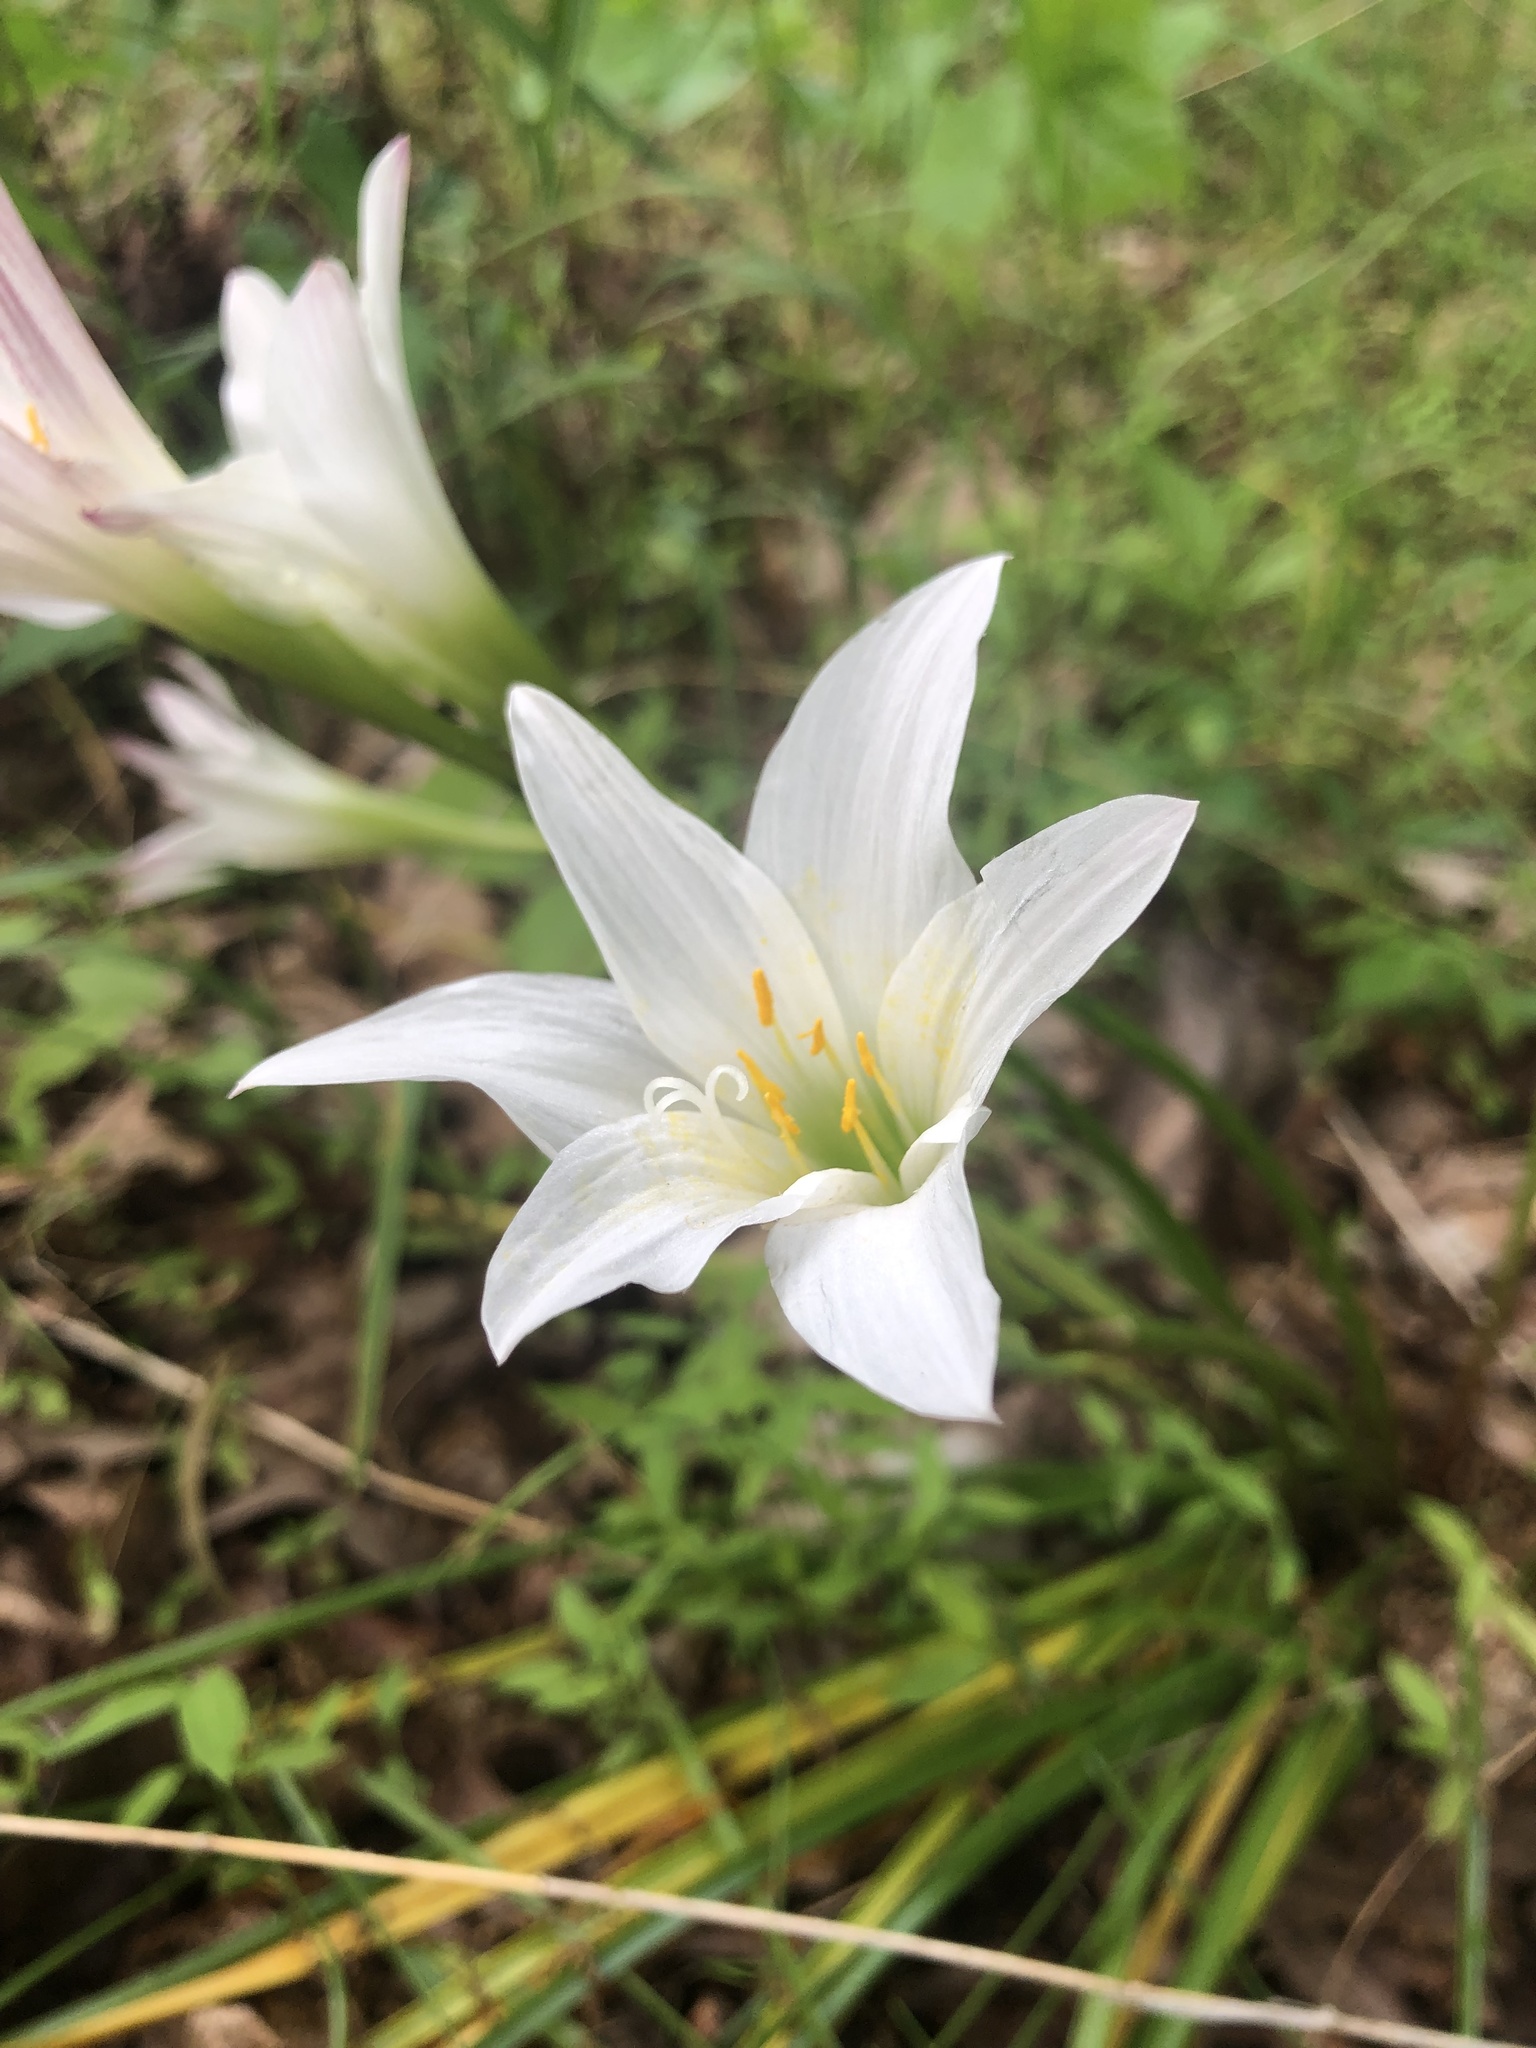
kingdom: Plantae
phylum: Tracheophyta
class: Liliopsida
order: Asparagales
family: Amaryllidaceae
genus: Zephyranthes
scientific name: Zephyranthes atamasco
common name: Atamasco lily
